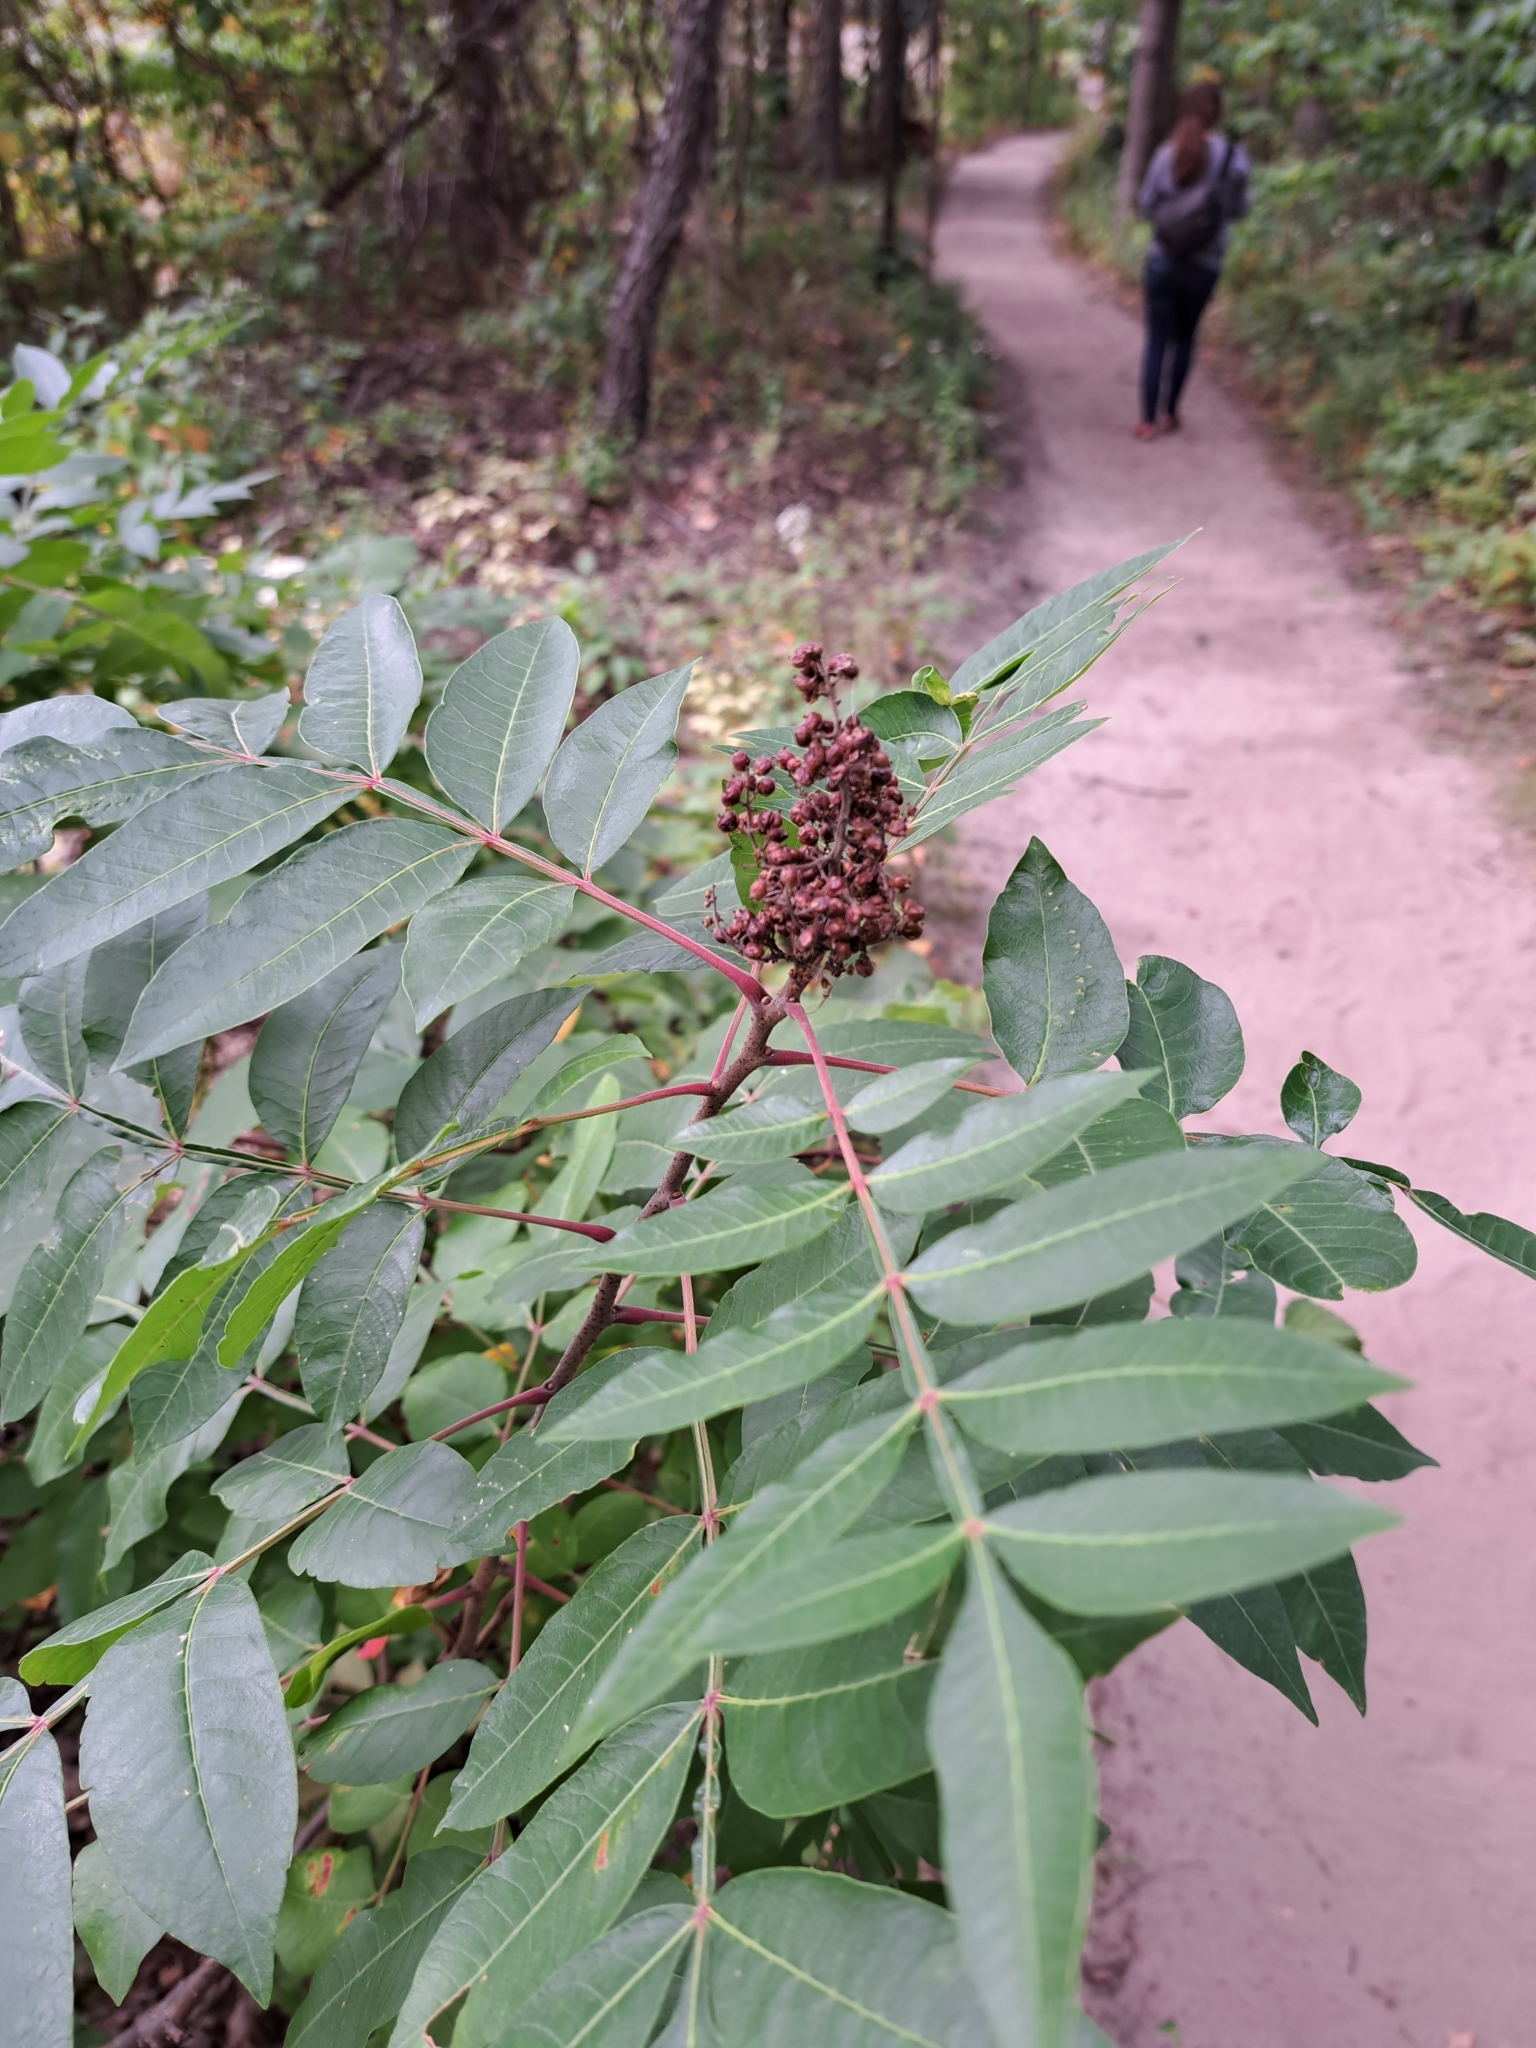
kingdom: Plantae
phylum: Tracheophyta
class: Magnoliopsida
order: Sapindales
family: Anacardiaceae
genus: Rhus
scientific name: Rhus copallina
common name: Shining sumac
